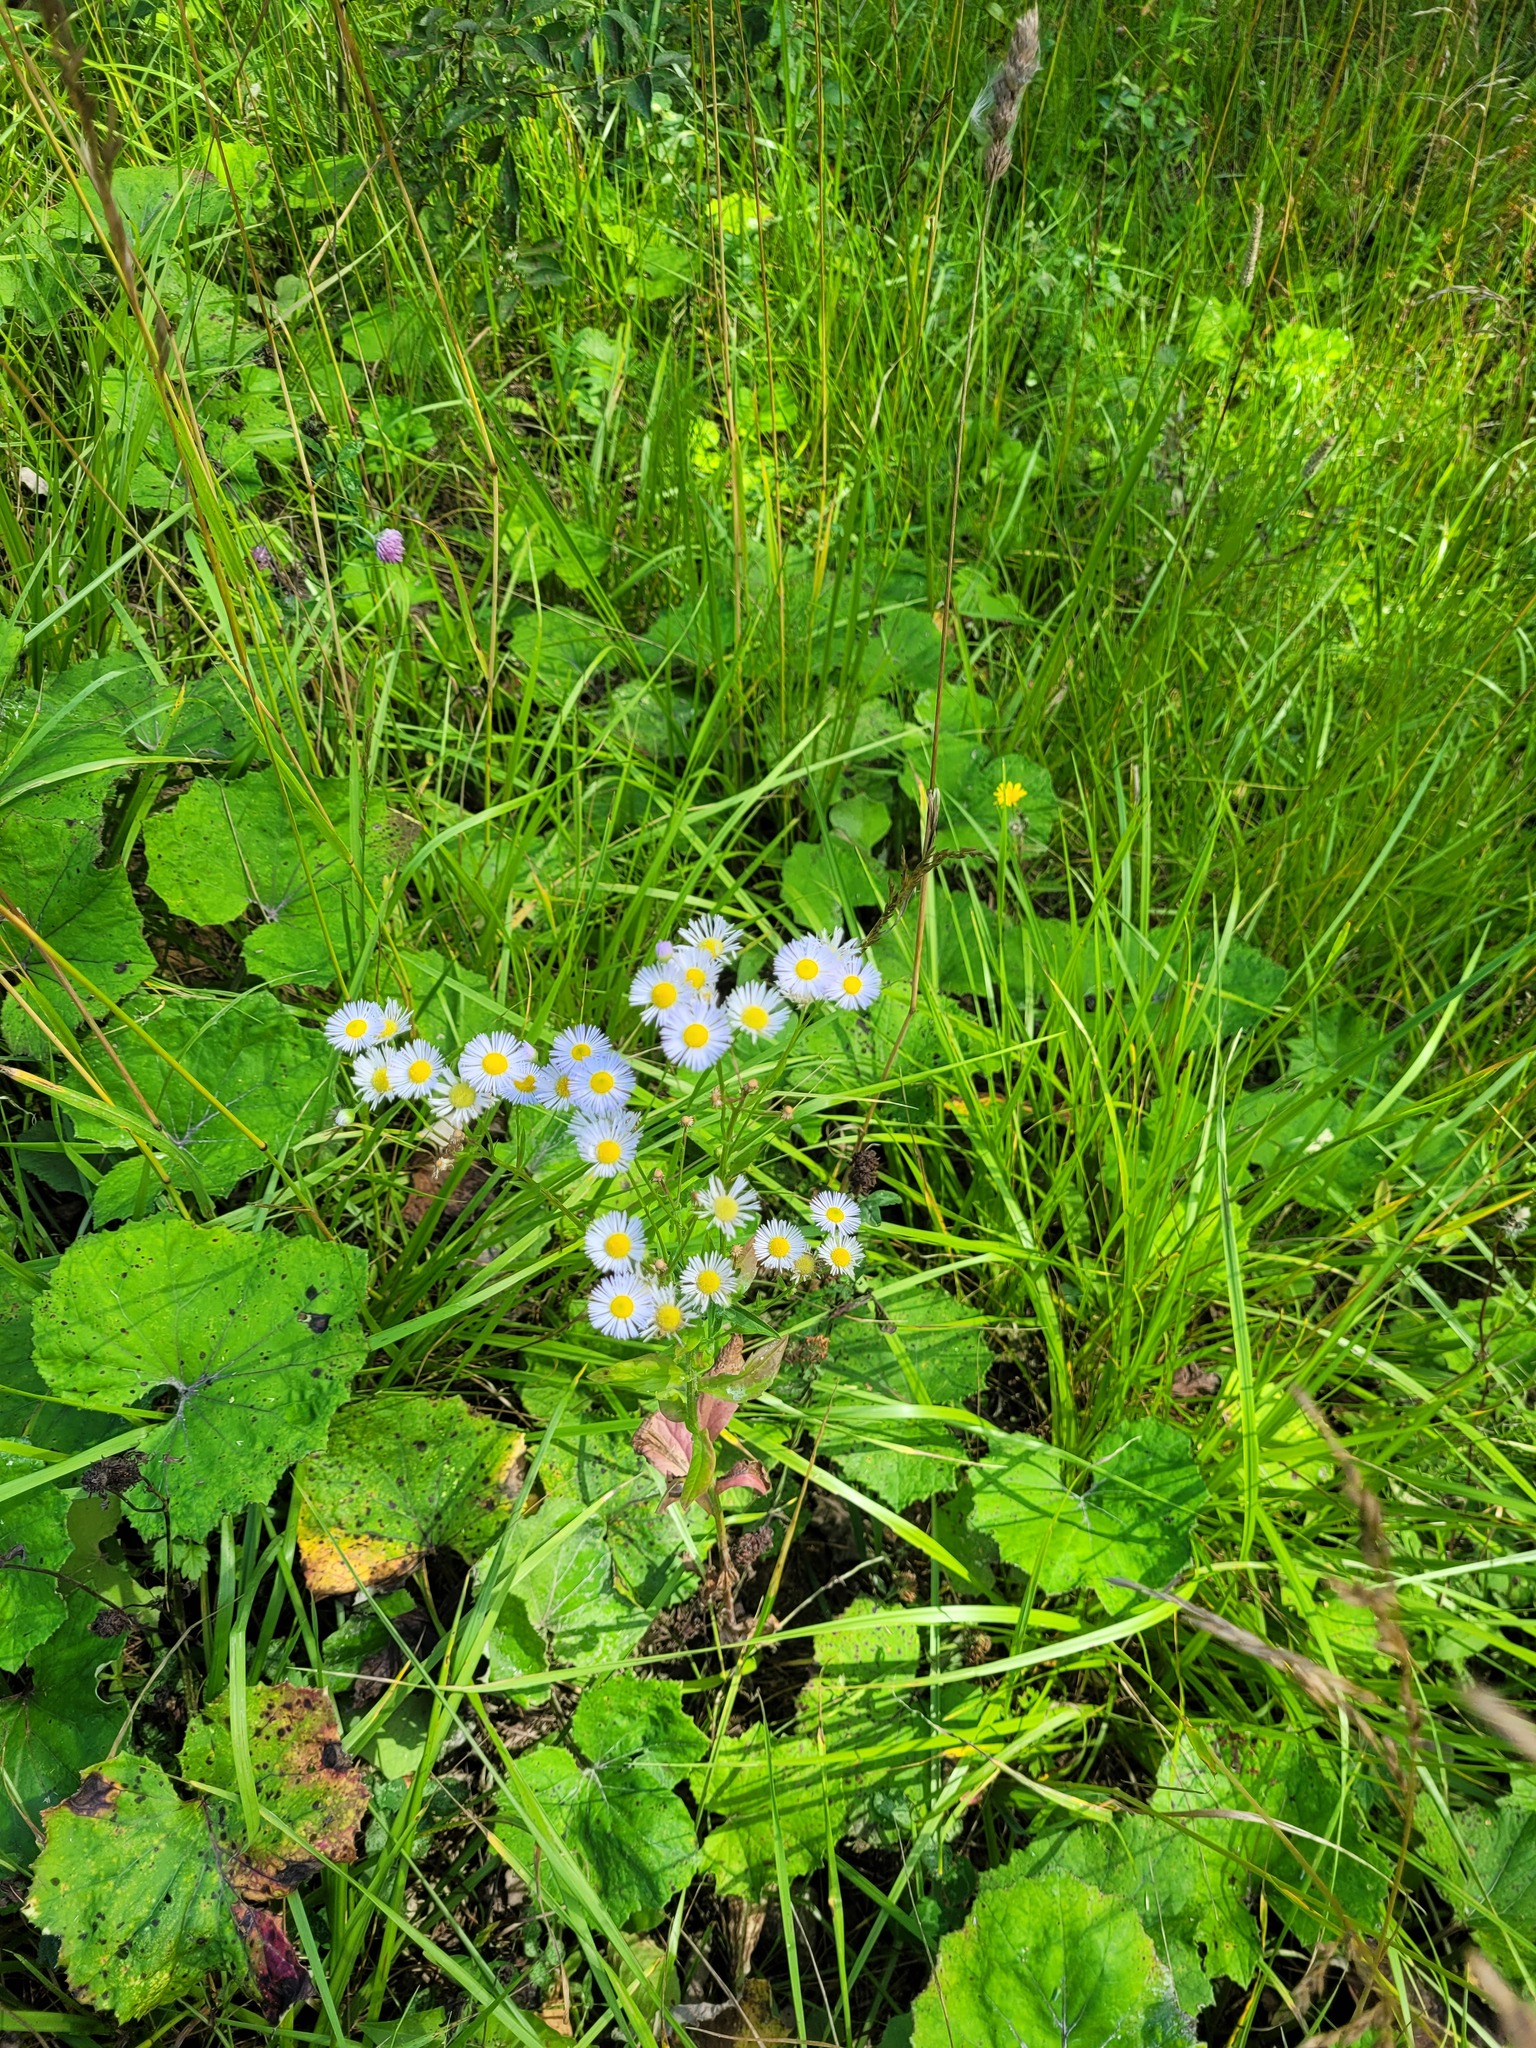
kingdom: Plantae
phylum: Tracheophyta
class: Magnoliopsida
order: Asterales
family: Asteraceae
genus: Erigeron
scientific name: Erigeron annuus
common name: Tall fleabane
